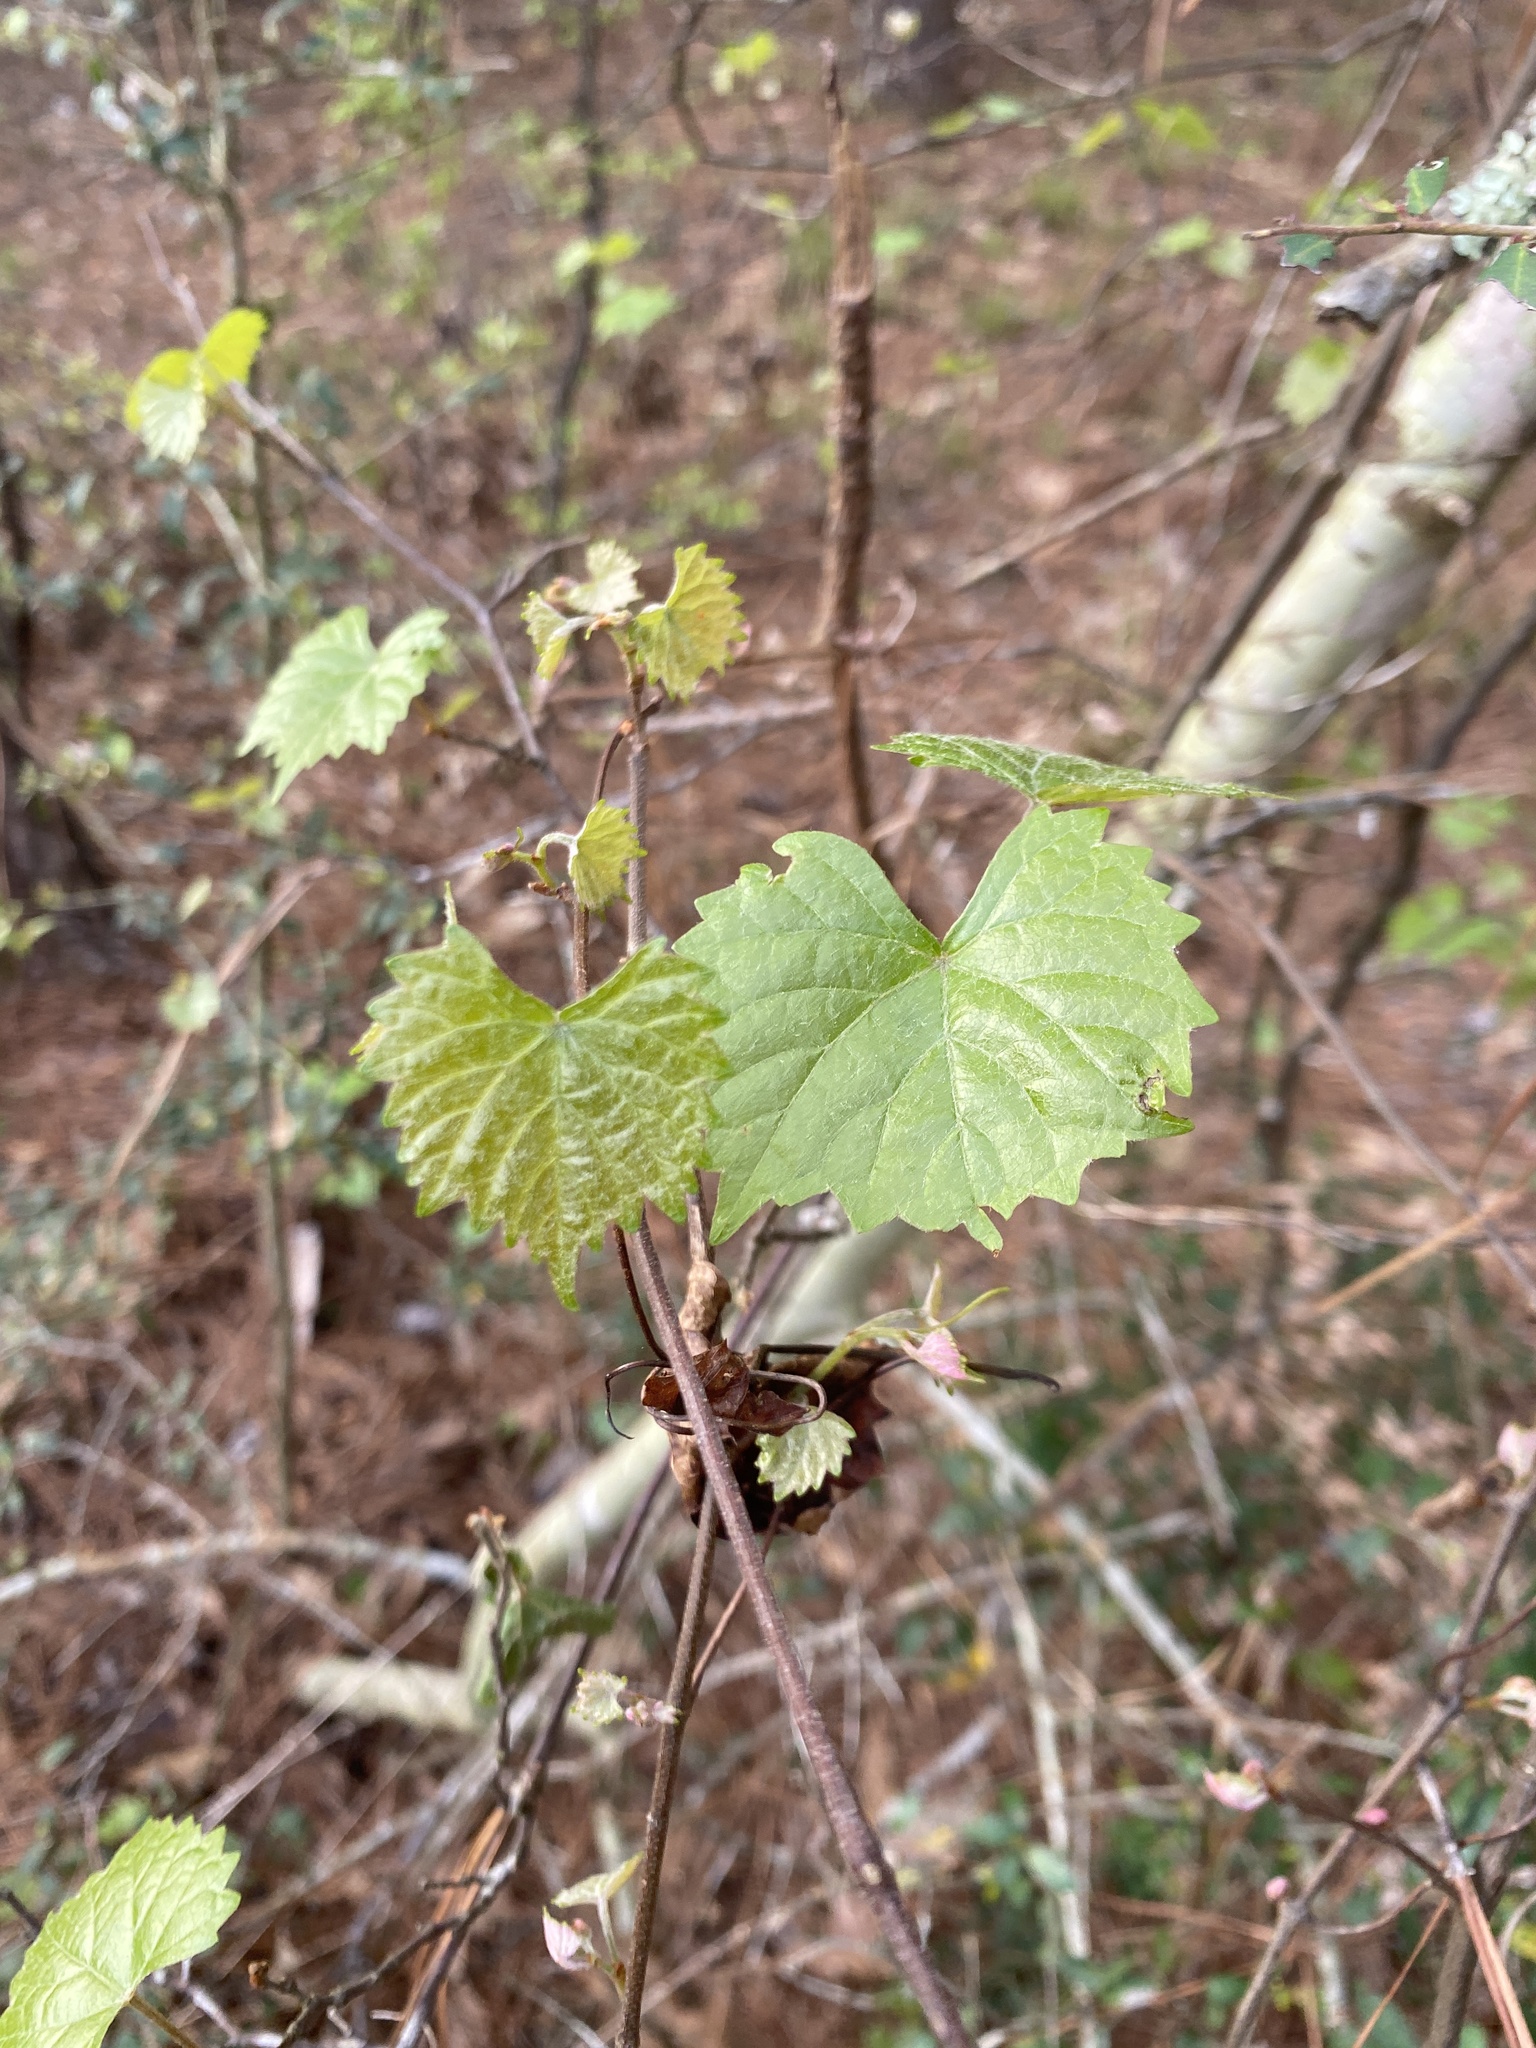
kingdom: Plantae
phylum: Tracheophyta
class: Magnoliopsida
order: Vitales
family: Vitaceae
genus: Vitis
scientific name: Vitis rotundifolia
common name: Muscadine grape
